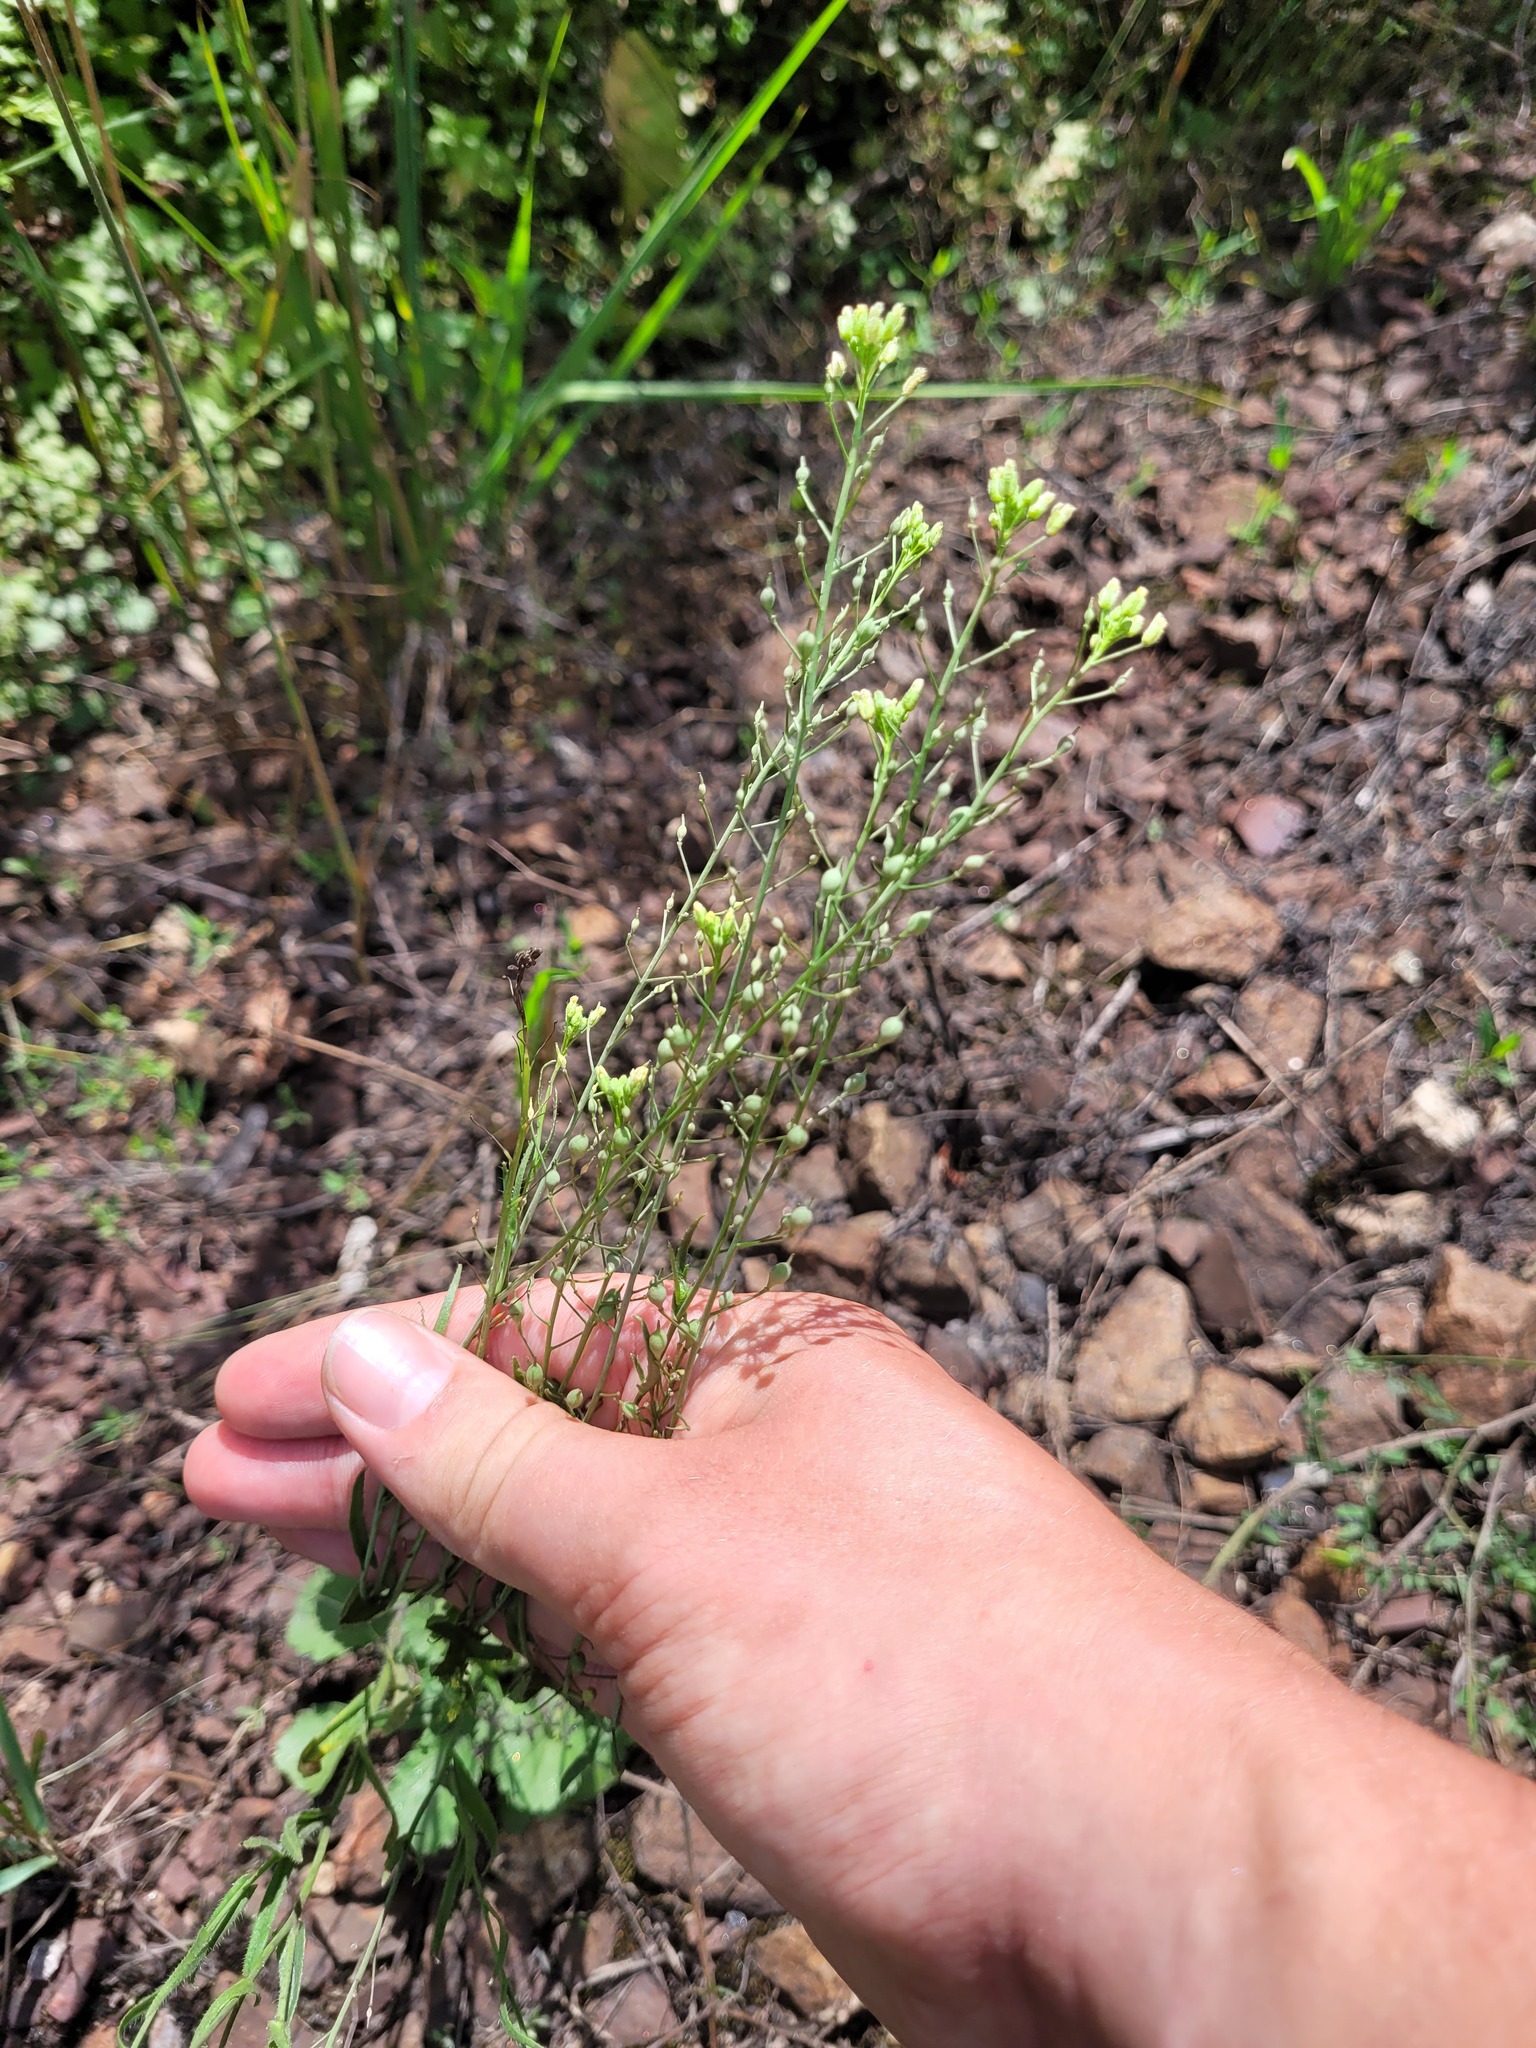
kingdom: Plantae
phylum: Tracheophyta
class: Magnoliopsida
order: Brassicales
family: Brassicaceae
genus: Camelina
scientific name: Camelina microcarpa
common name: Lesser gold-of-pleasure
